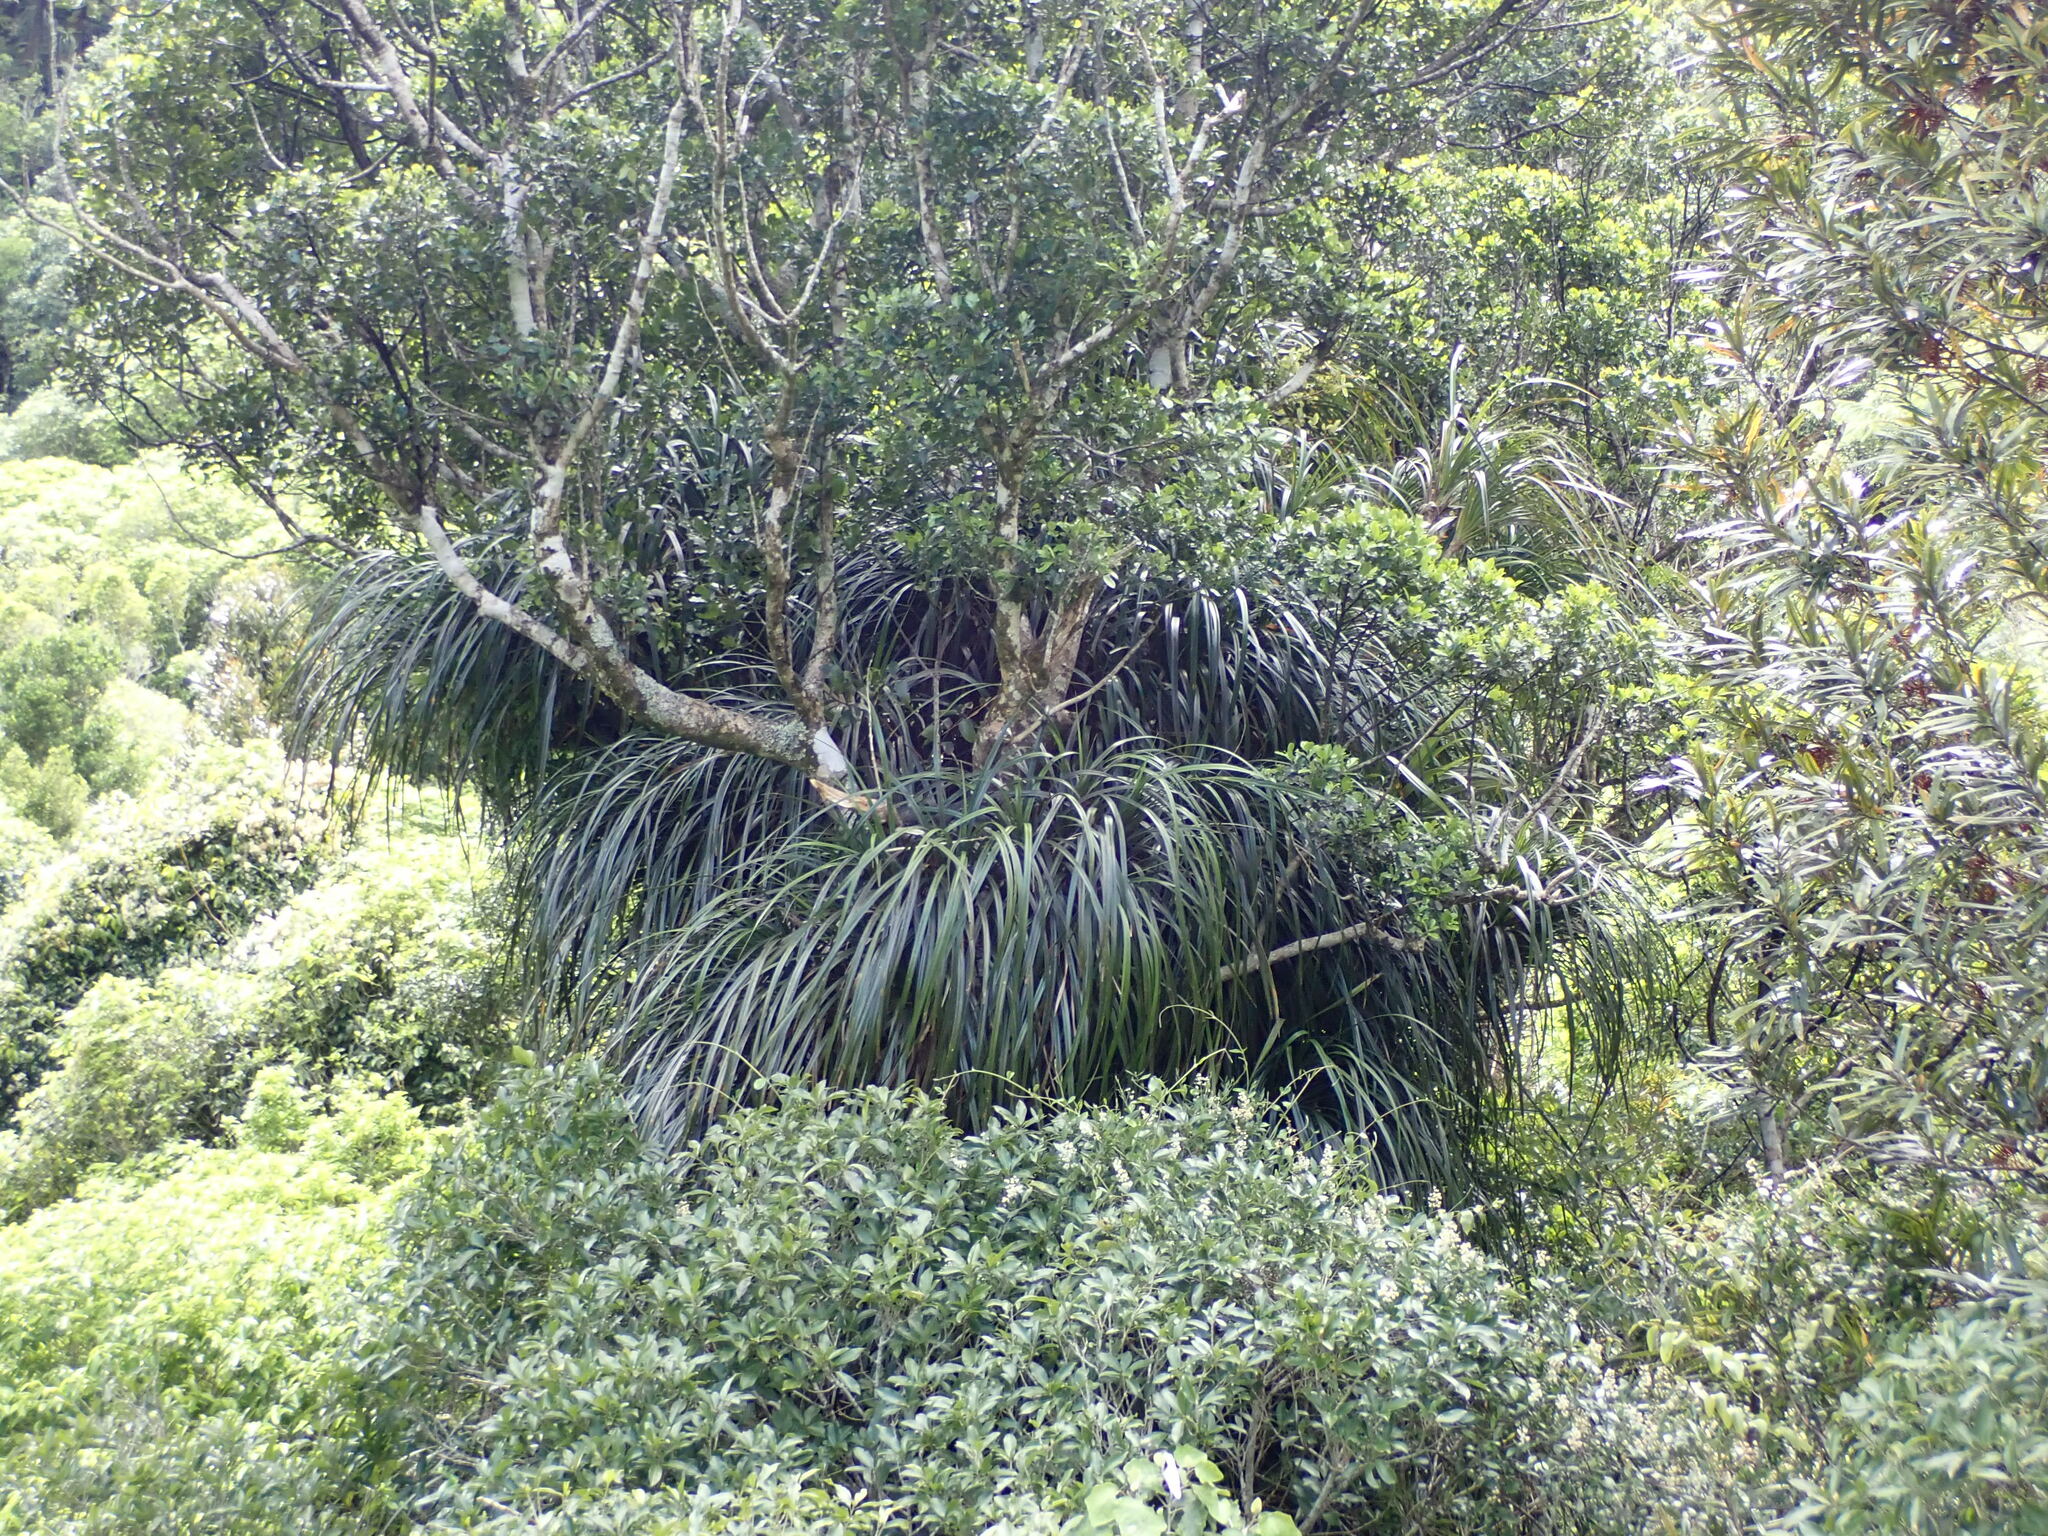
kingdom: Plantae
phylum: Tracheophyta
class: Liliopsida
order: Pandanales
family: Pandanaceae
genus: Freycinetia
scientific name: Freycinetia banksii
